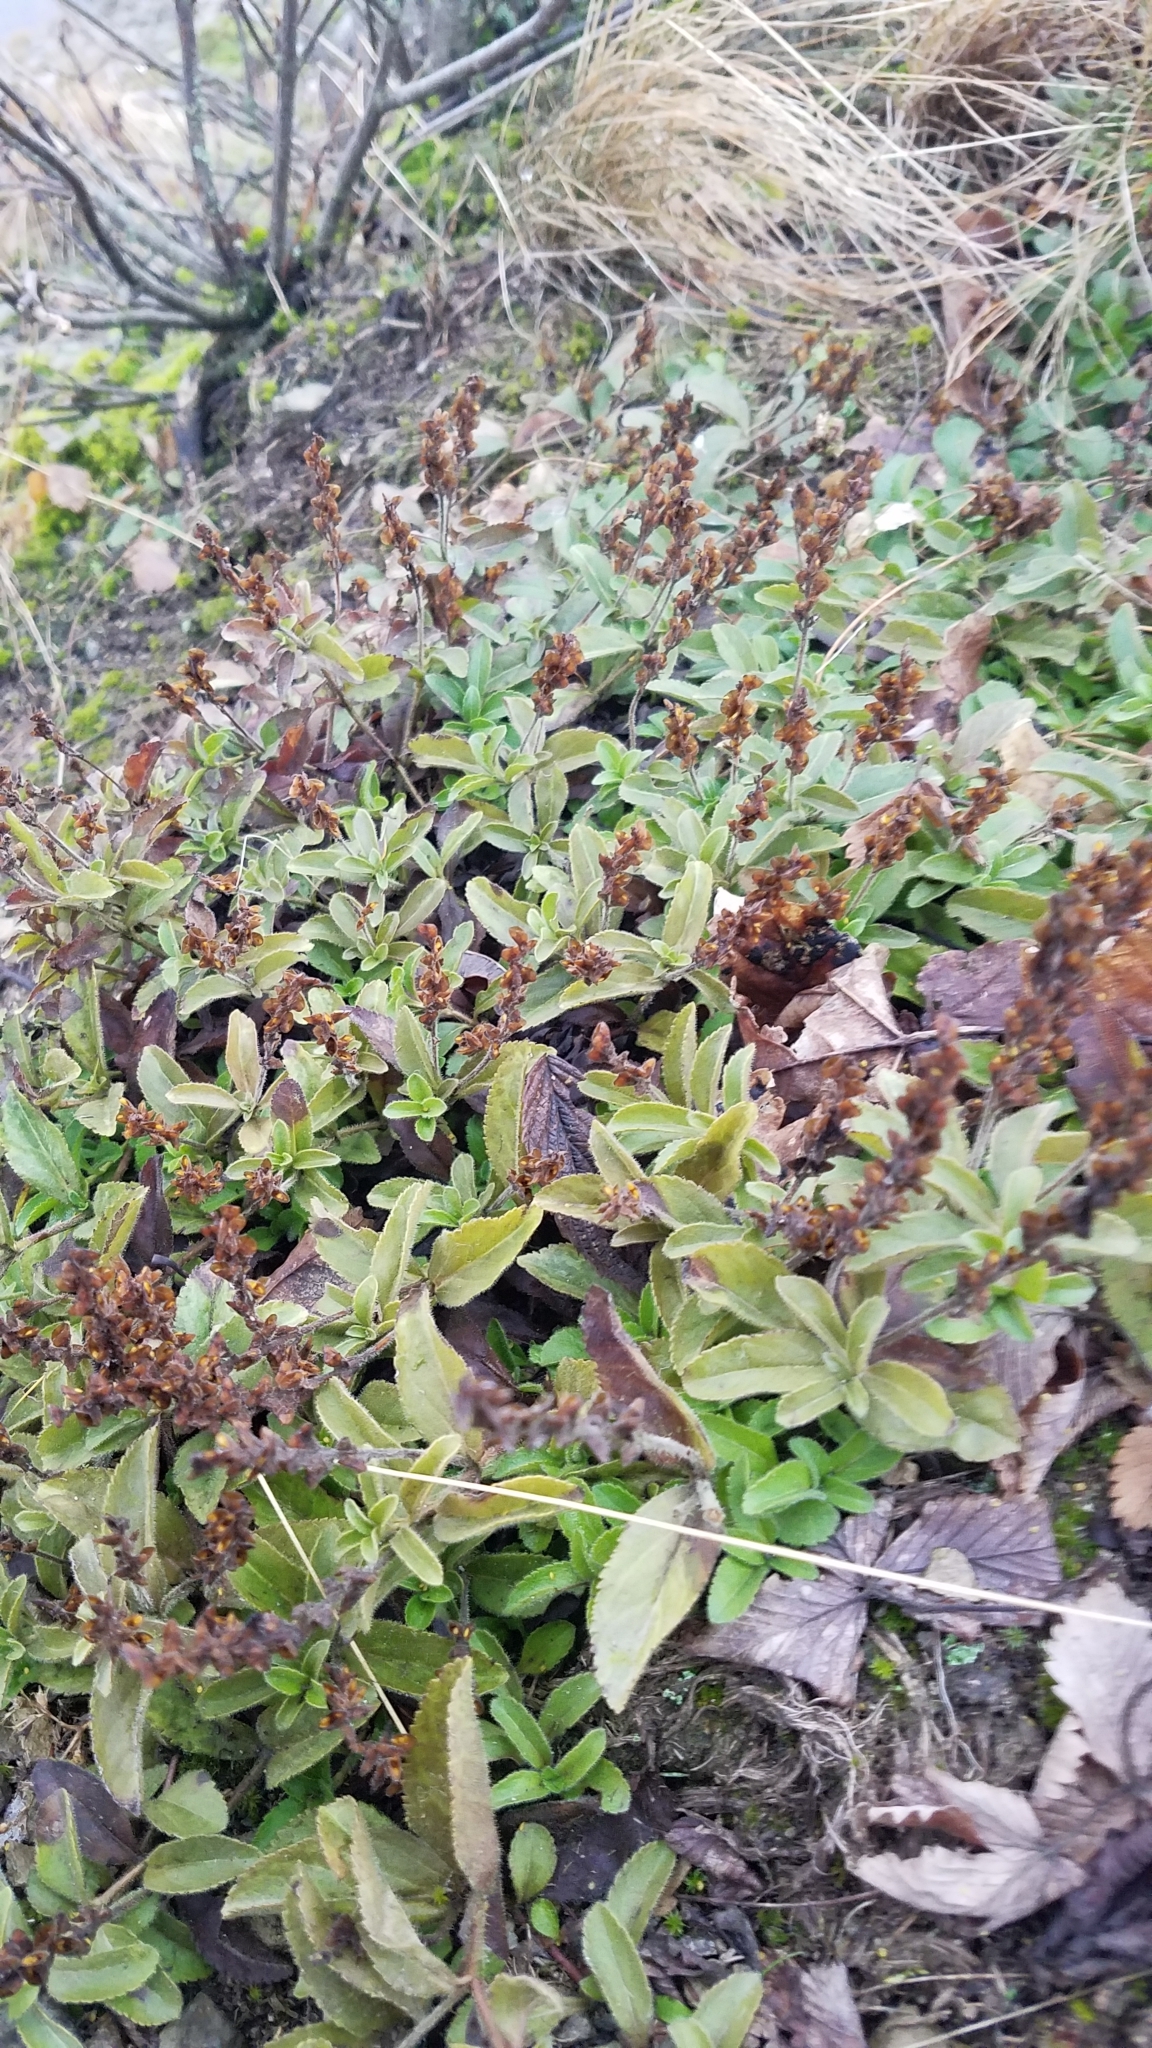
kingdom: Plantae
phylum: Tracheophyta
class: Magnoliopsida
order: Lamiales
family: Plantaginaceae
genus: Veronica
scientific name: Veronica officinalis
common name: Common speedwell
